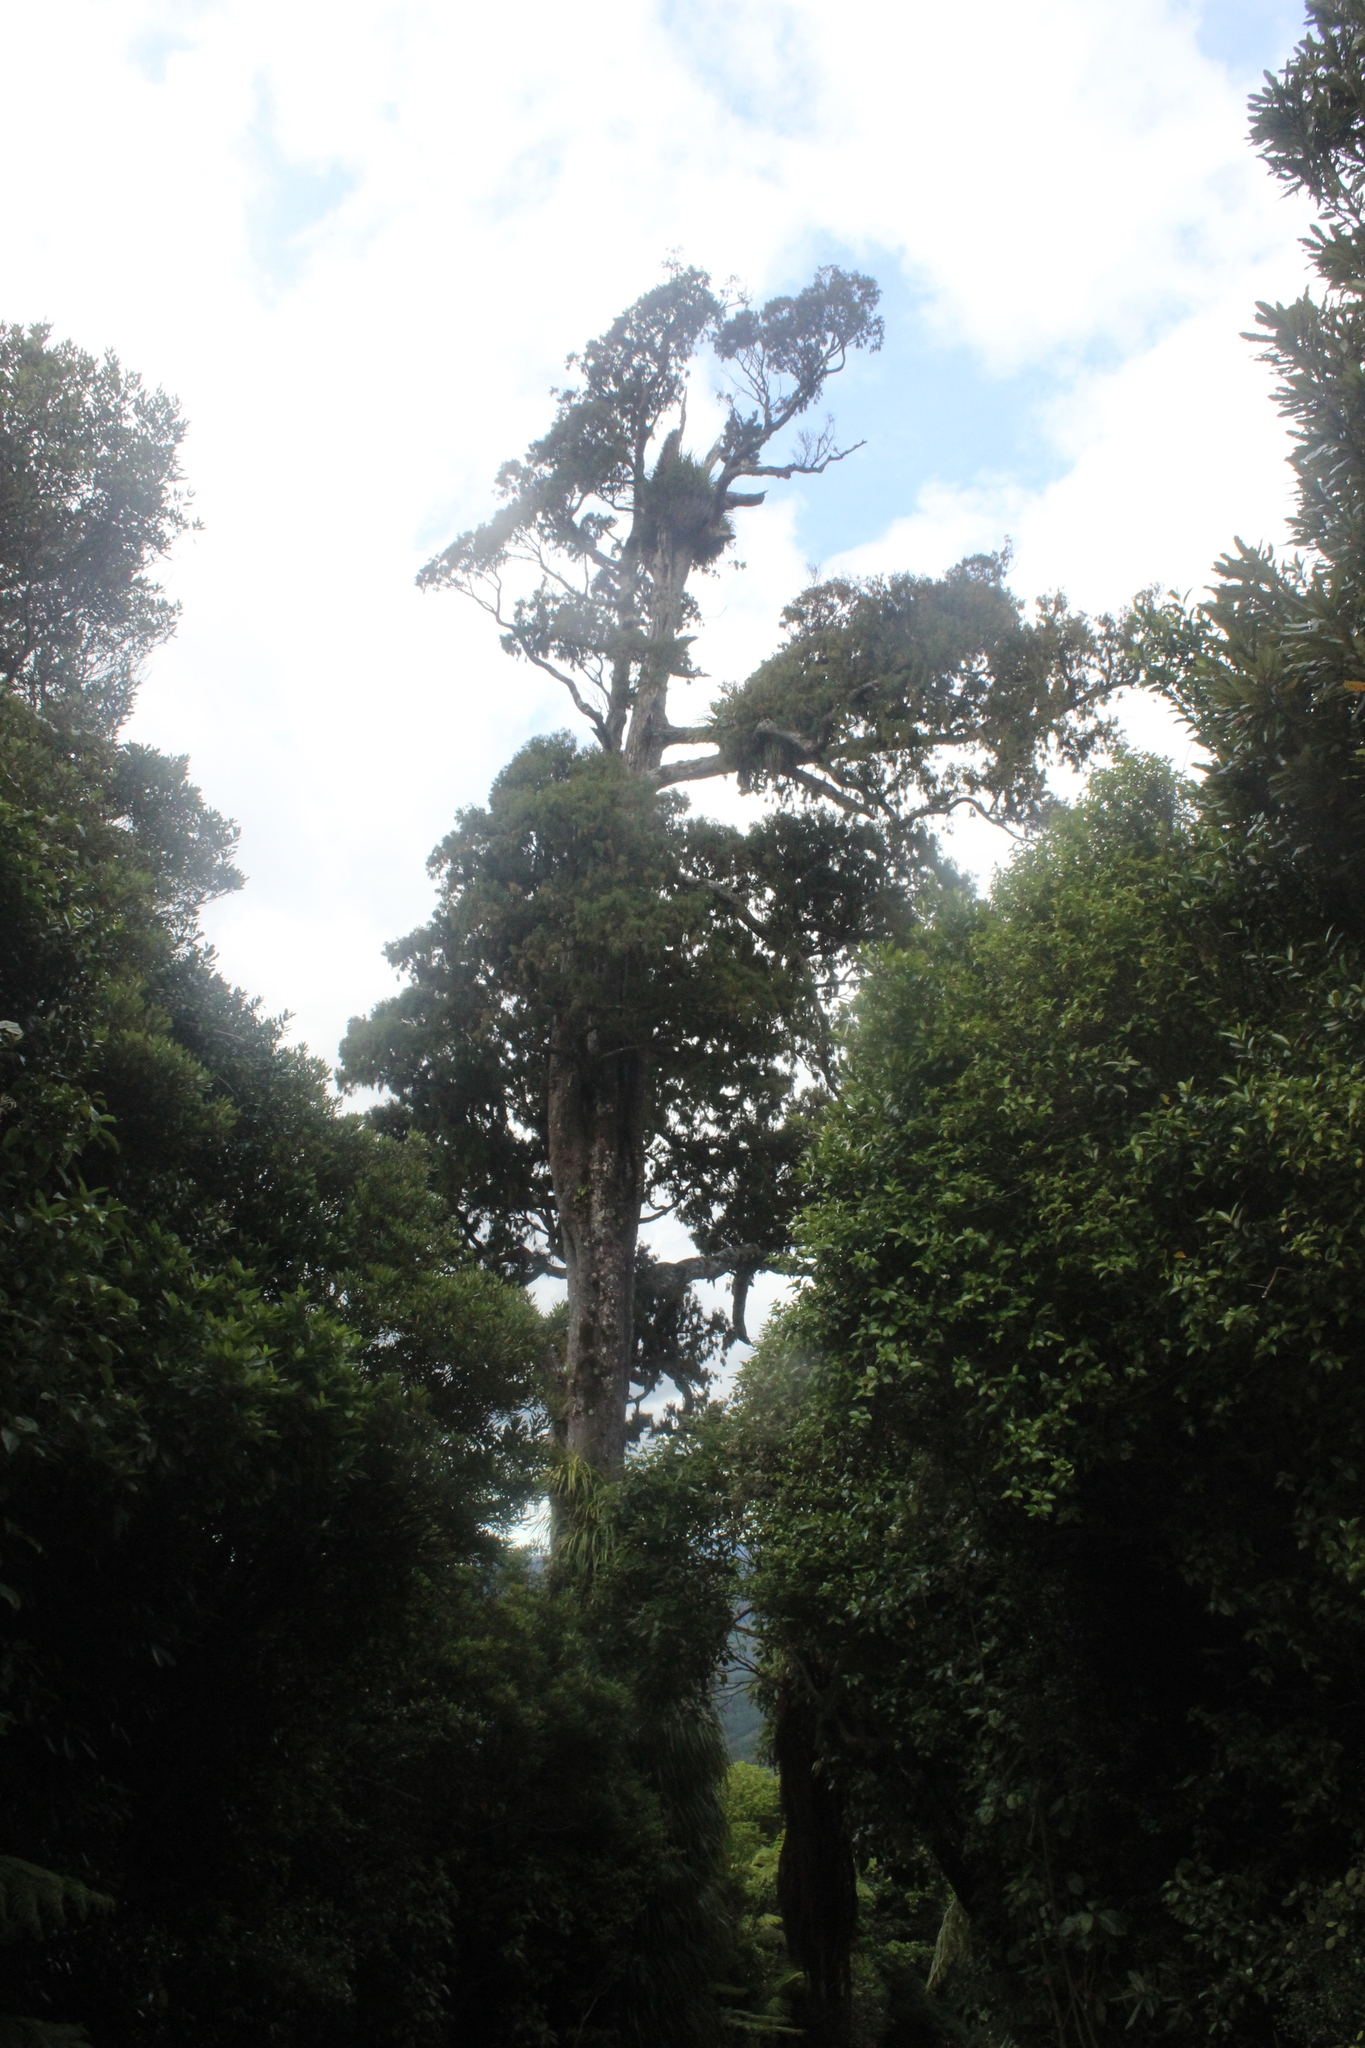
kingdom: Plantae
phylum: Tracheophyta
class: Pinopsida
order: Pinales
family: Podocarpaceae
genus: Dacrydium
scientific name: Dacrydium cupressinum
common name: Red pine
